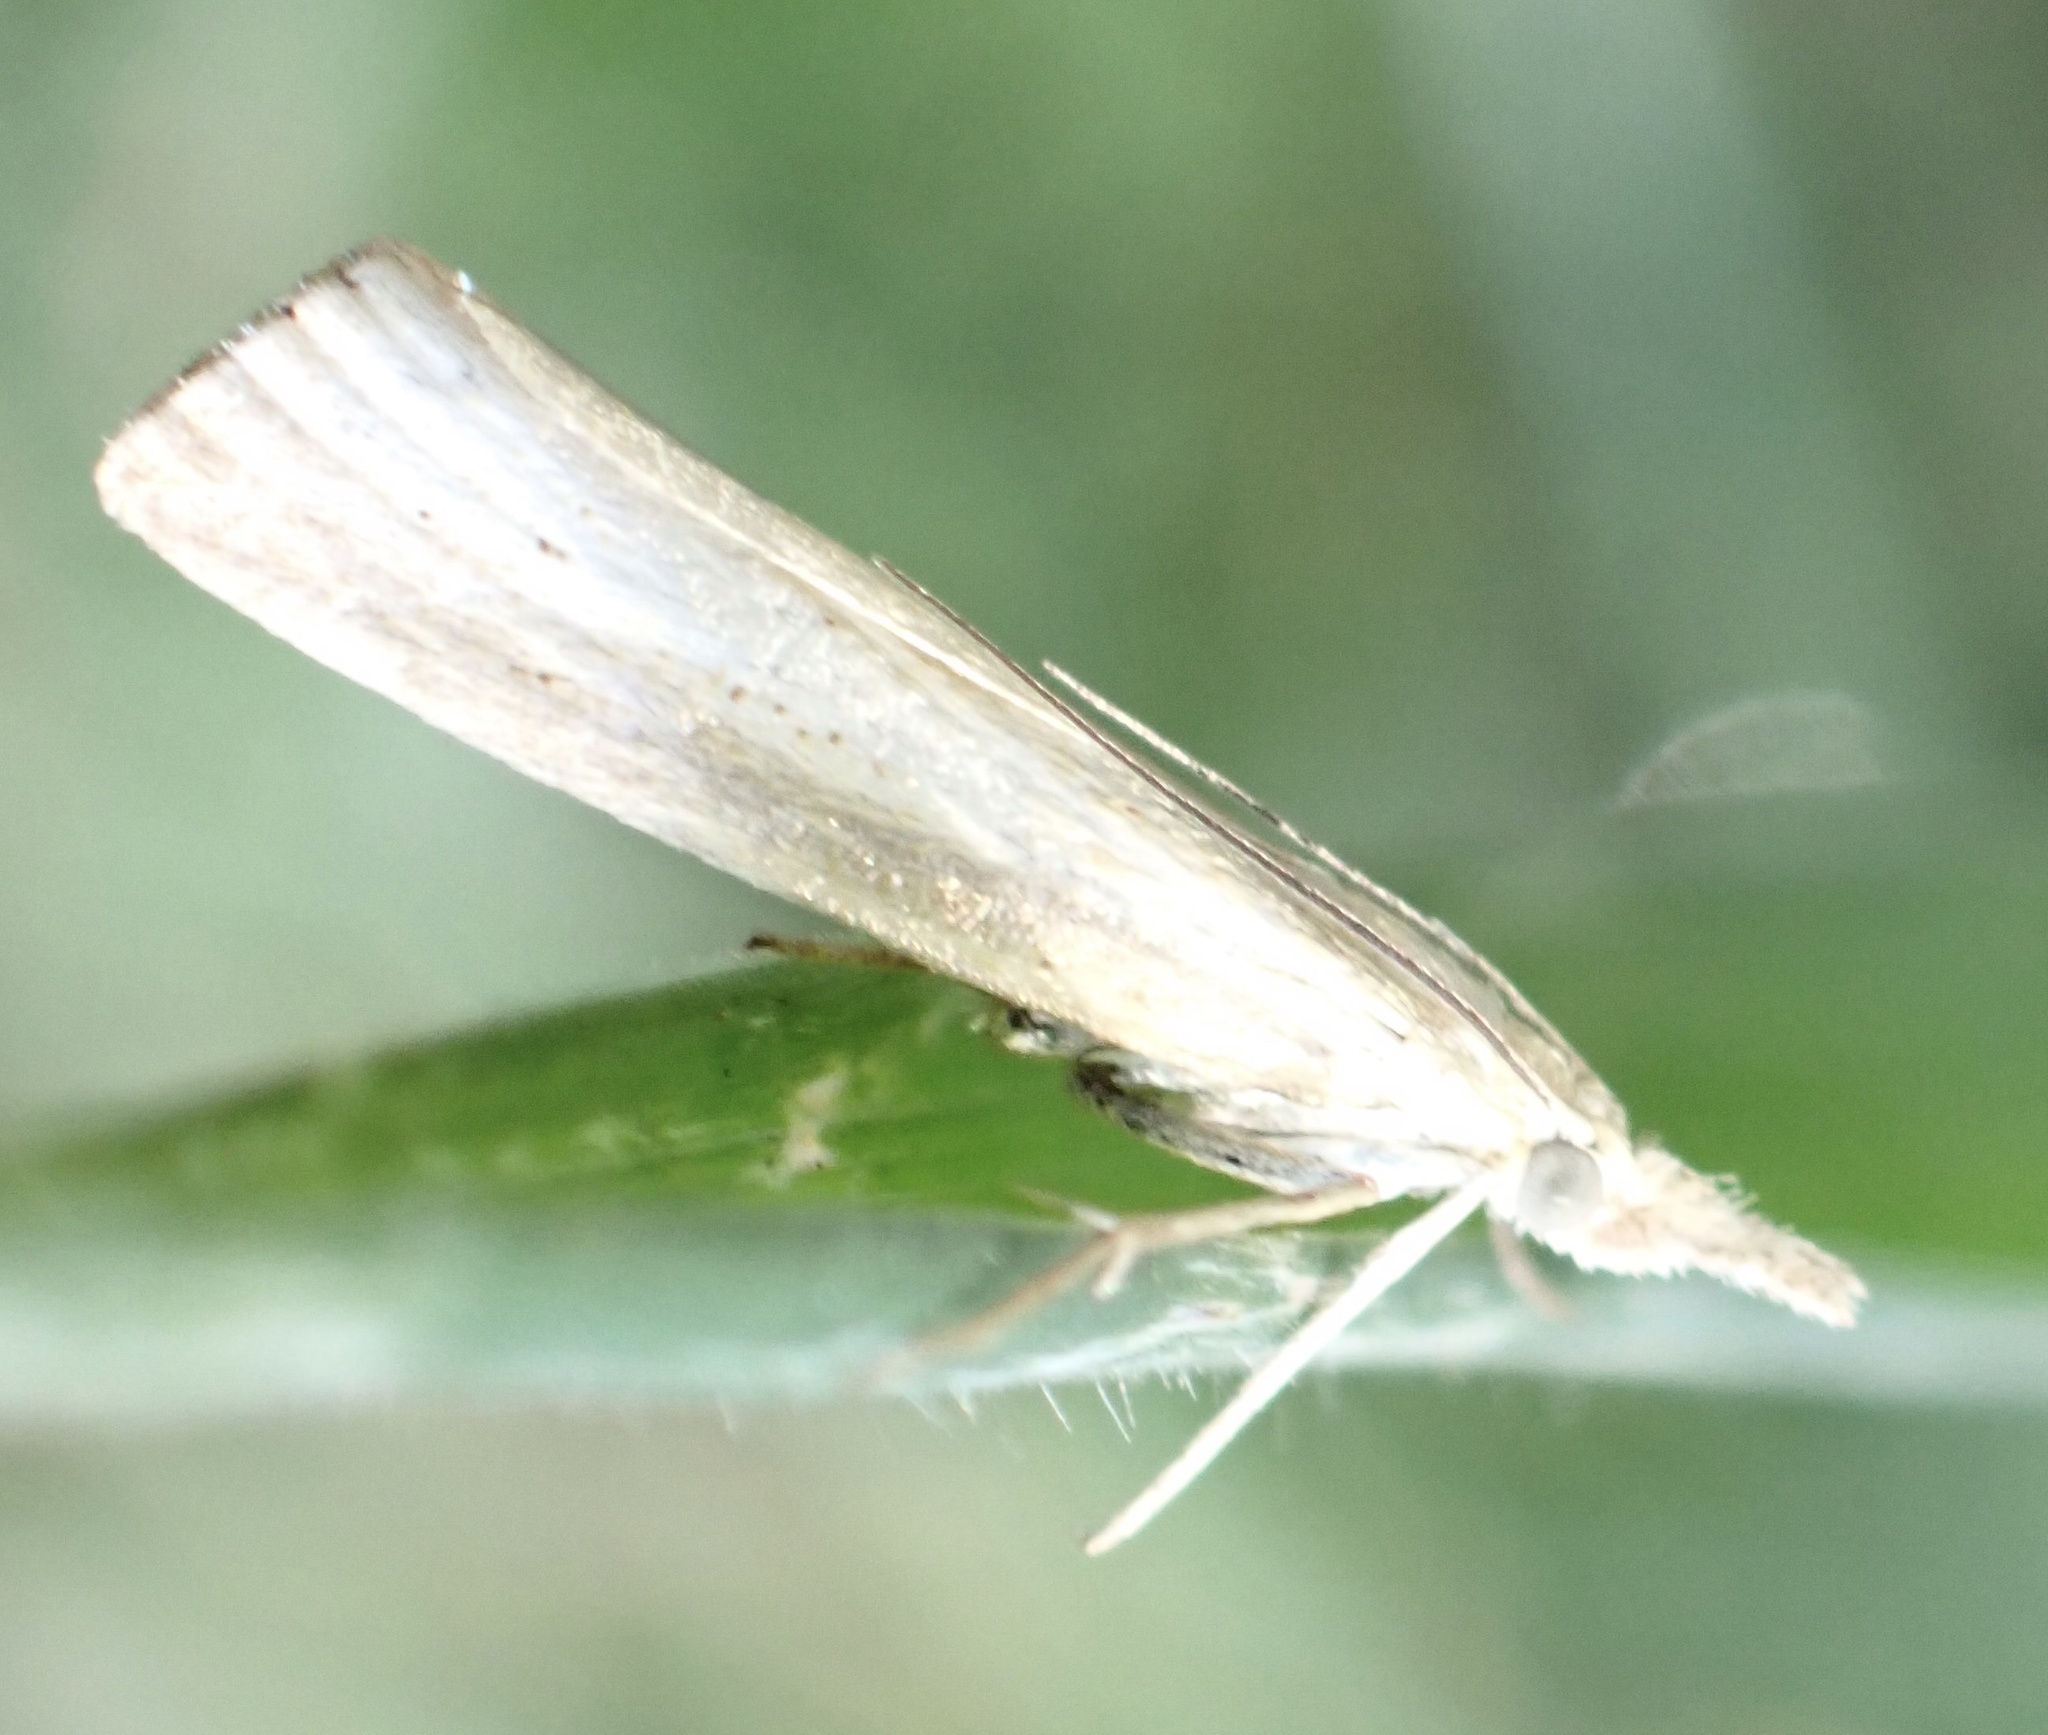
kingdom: Animalia
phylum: Arthropoda
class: Insecta
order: Lepidoptera
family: Crambidae
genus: Agriphila
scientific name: Agriphila straminella
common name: Straw grass-veneer
